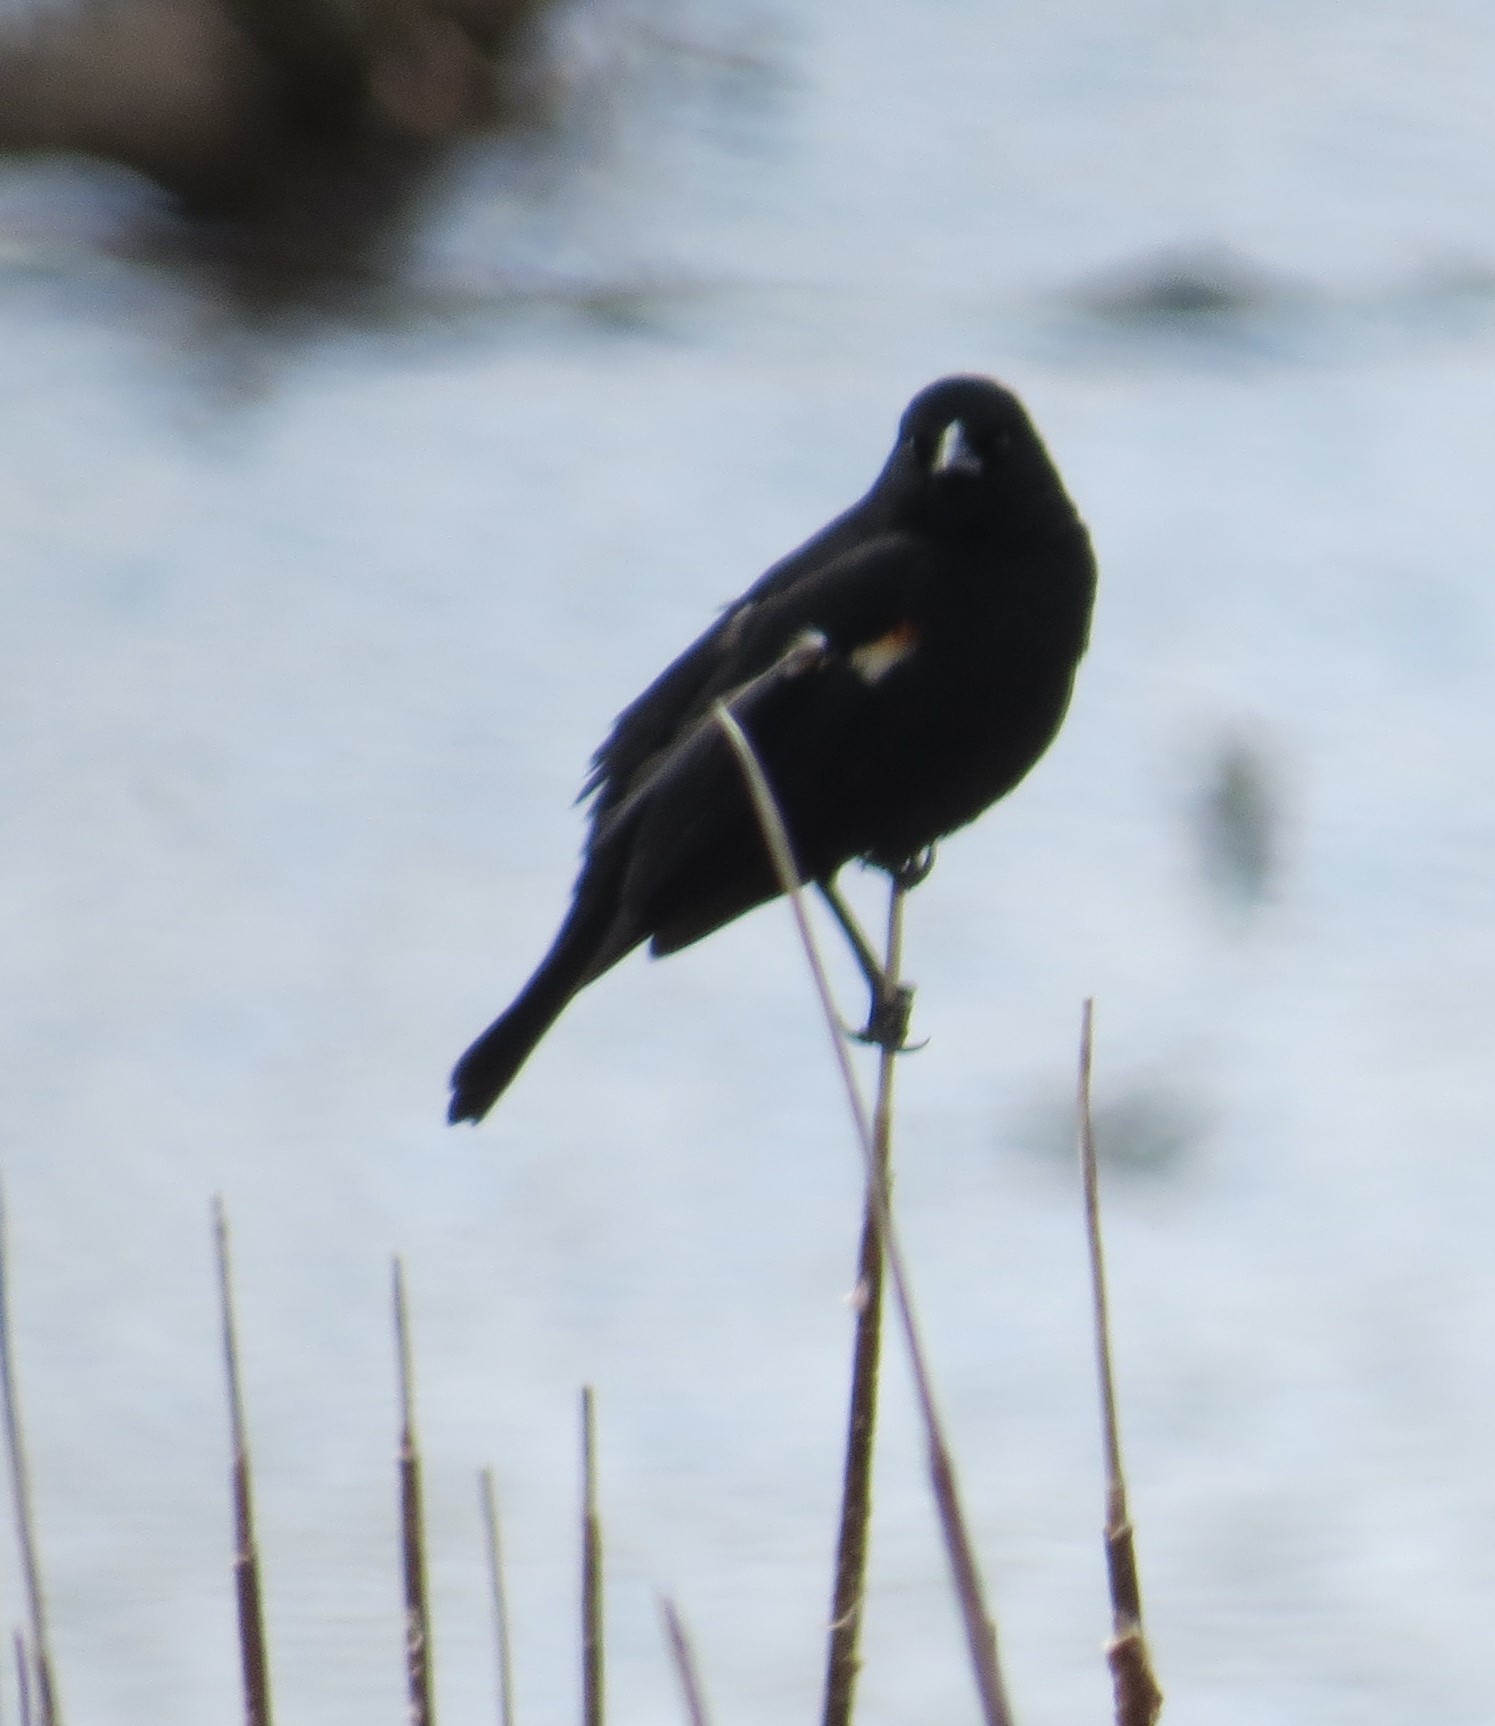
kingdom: Animalia
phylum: Chordata
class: Aves
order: Passeriformes
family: Icteridae
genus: Agelaius
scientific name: Agelaius phoeniceus
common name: Red-winged blackbird
